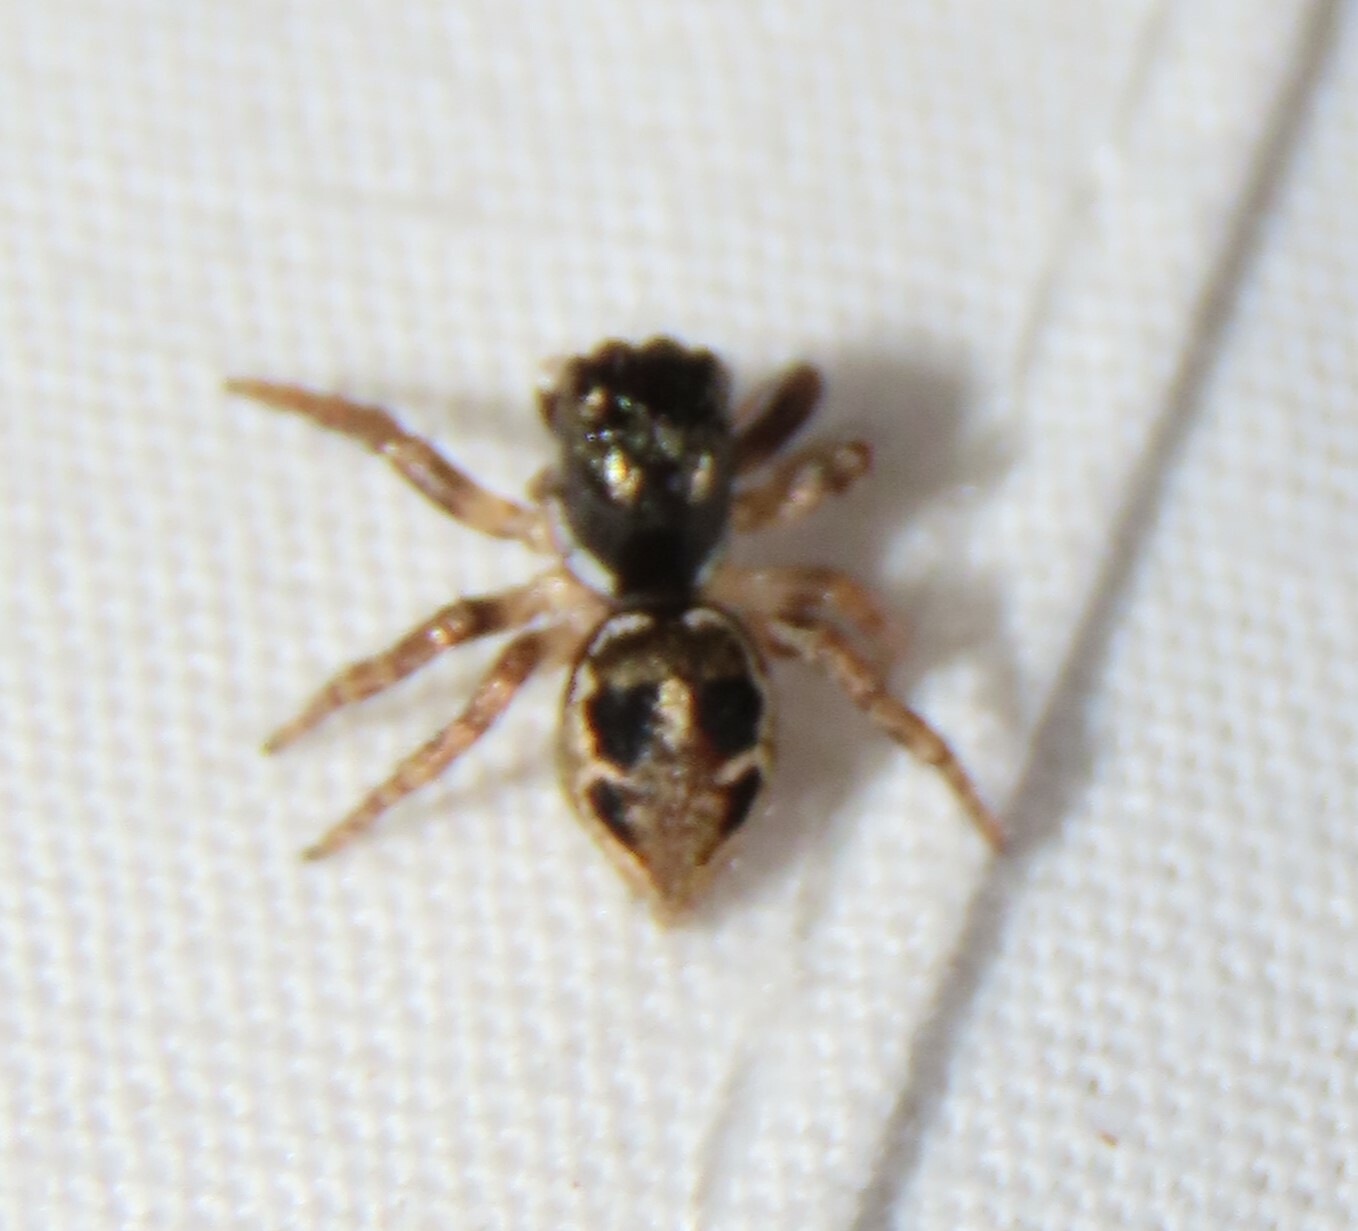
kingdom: Animalia
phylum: Arthropoda
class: Arachnida
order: Araneae
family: Salticidae
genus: Anasaitis
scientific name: Anasaitis canosa
